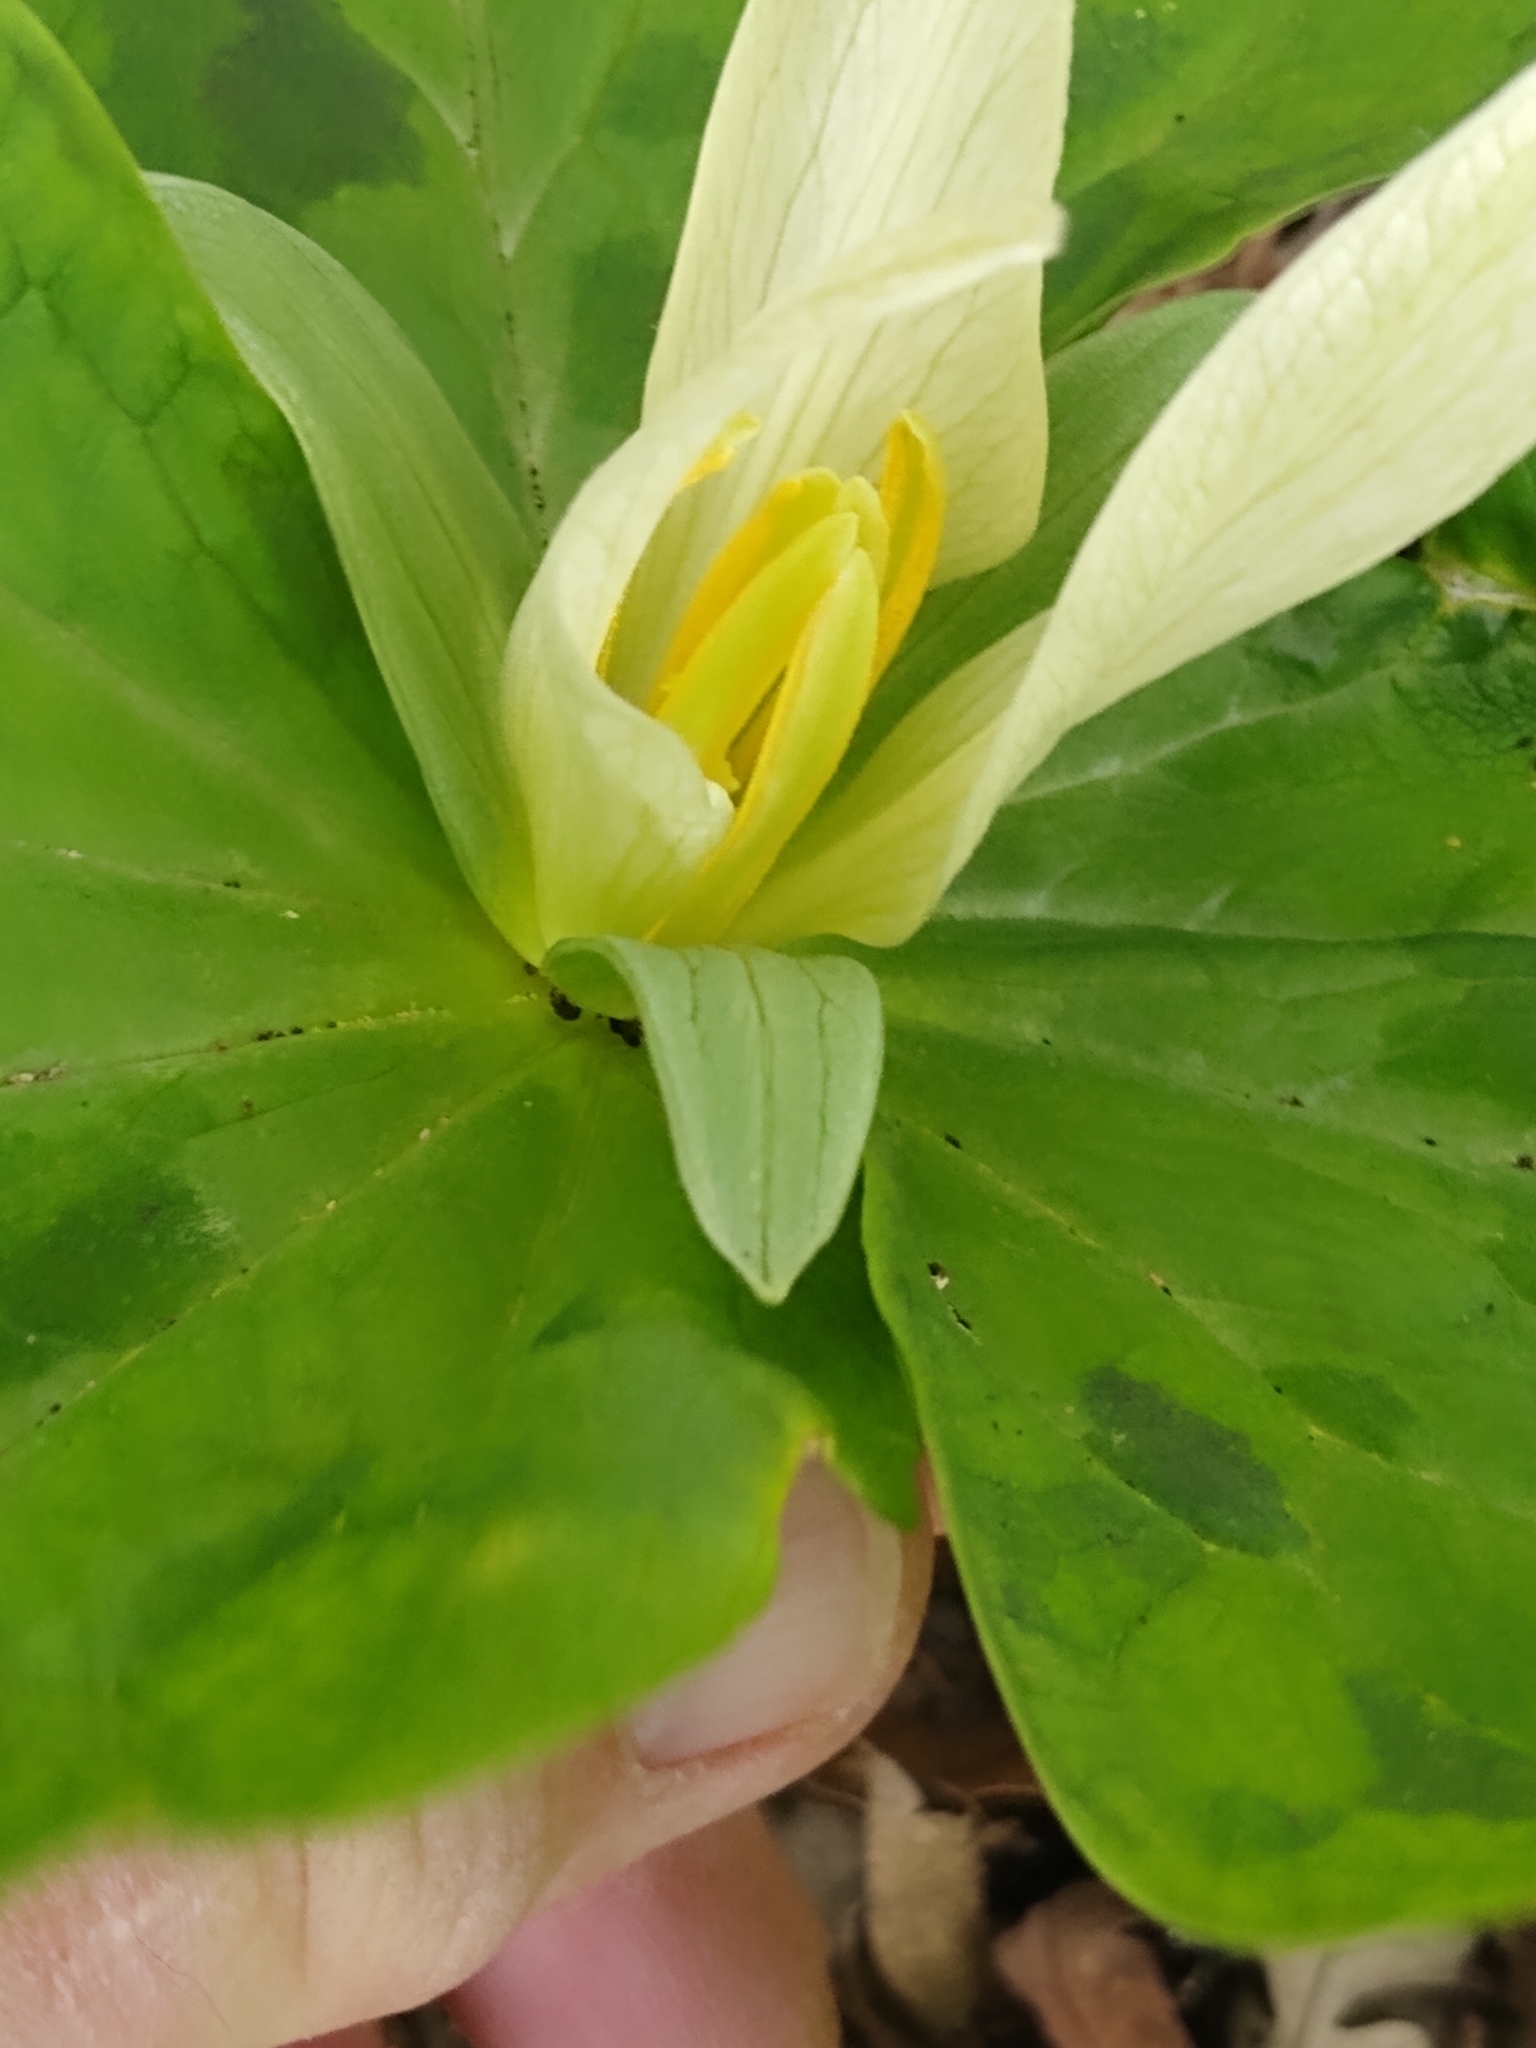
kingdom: Plantae
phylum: Tracheophyta
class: Liliopsida
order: Liliales
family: Melanthiaceae
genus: Trillium
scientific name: Trillium albidum
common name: Freeman's trillium
